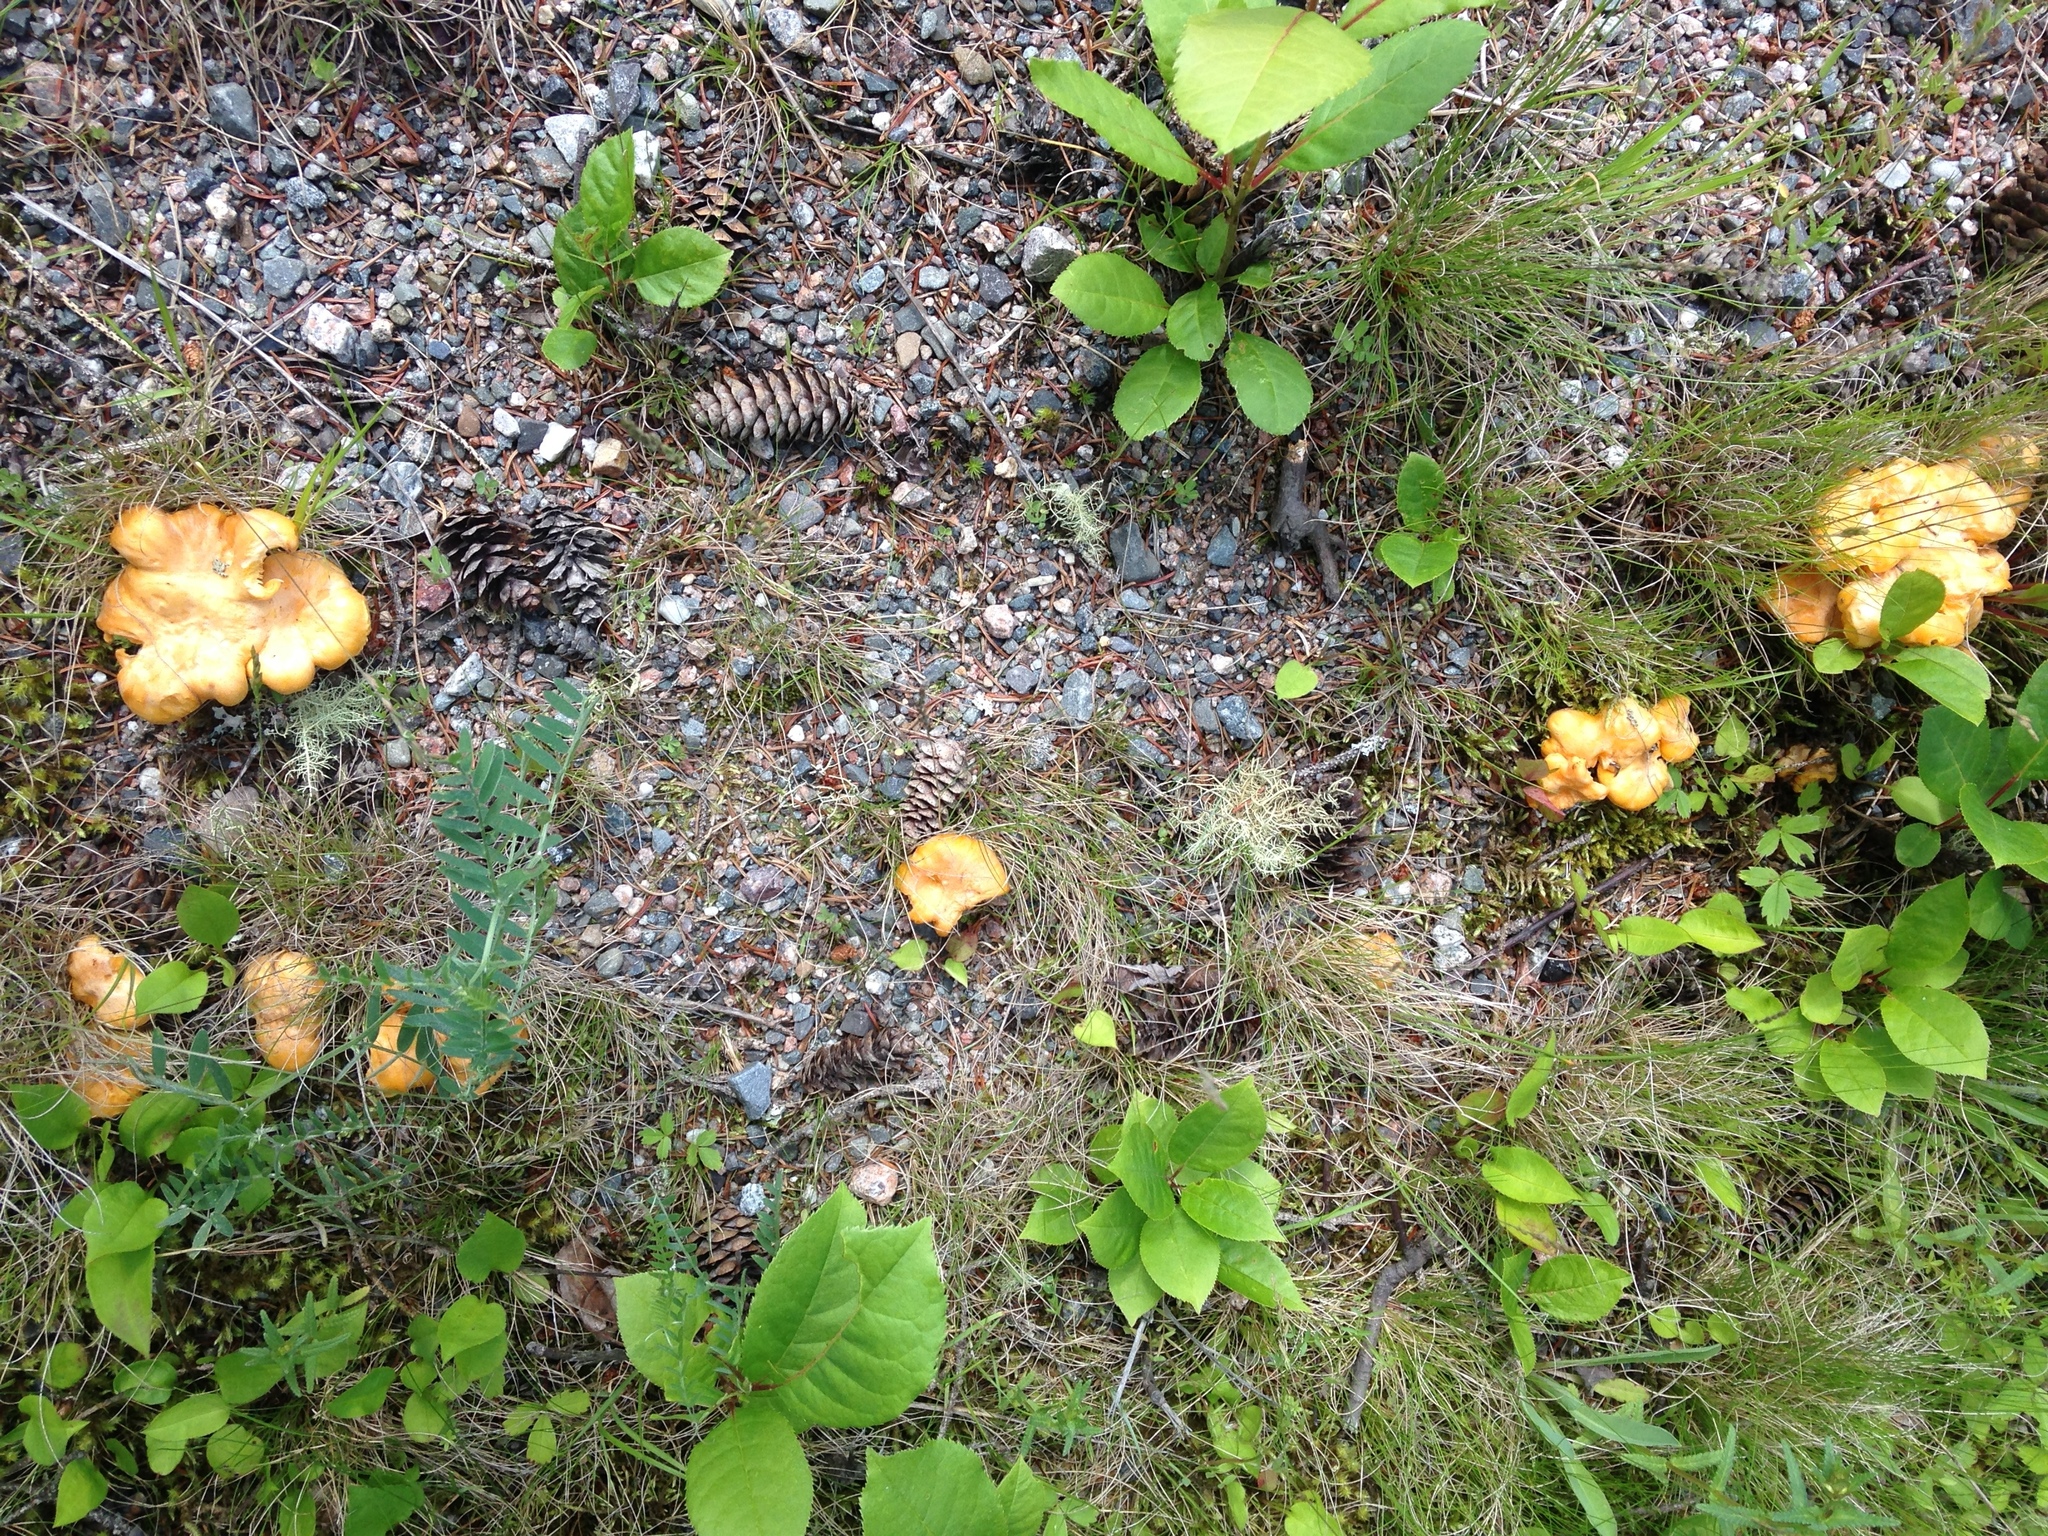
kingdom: Fungi
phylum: Basidiomycota
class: Agaricomycetes
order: Cantharellales
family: Hydnaceae
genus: Cantharellus
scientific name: Cantharellus enelensis
